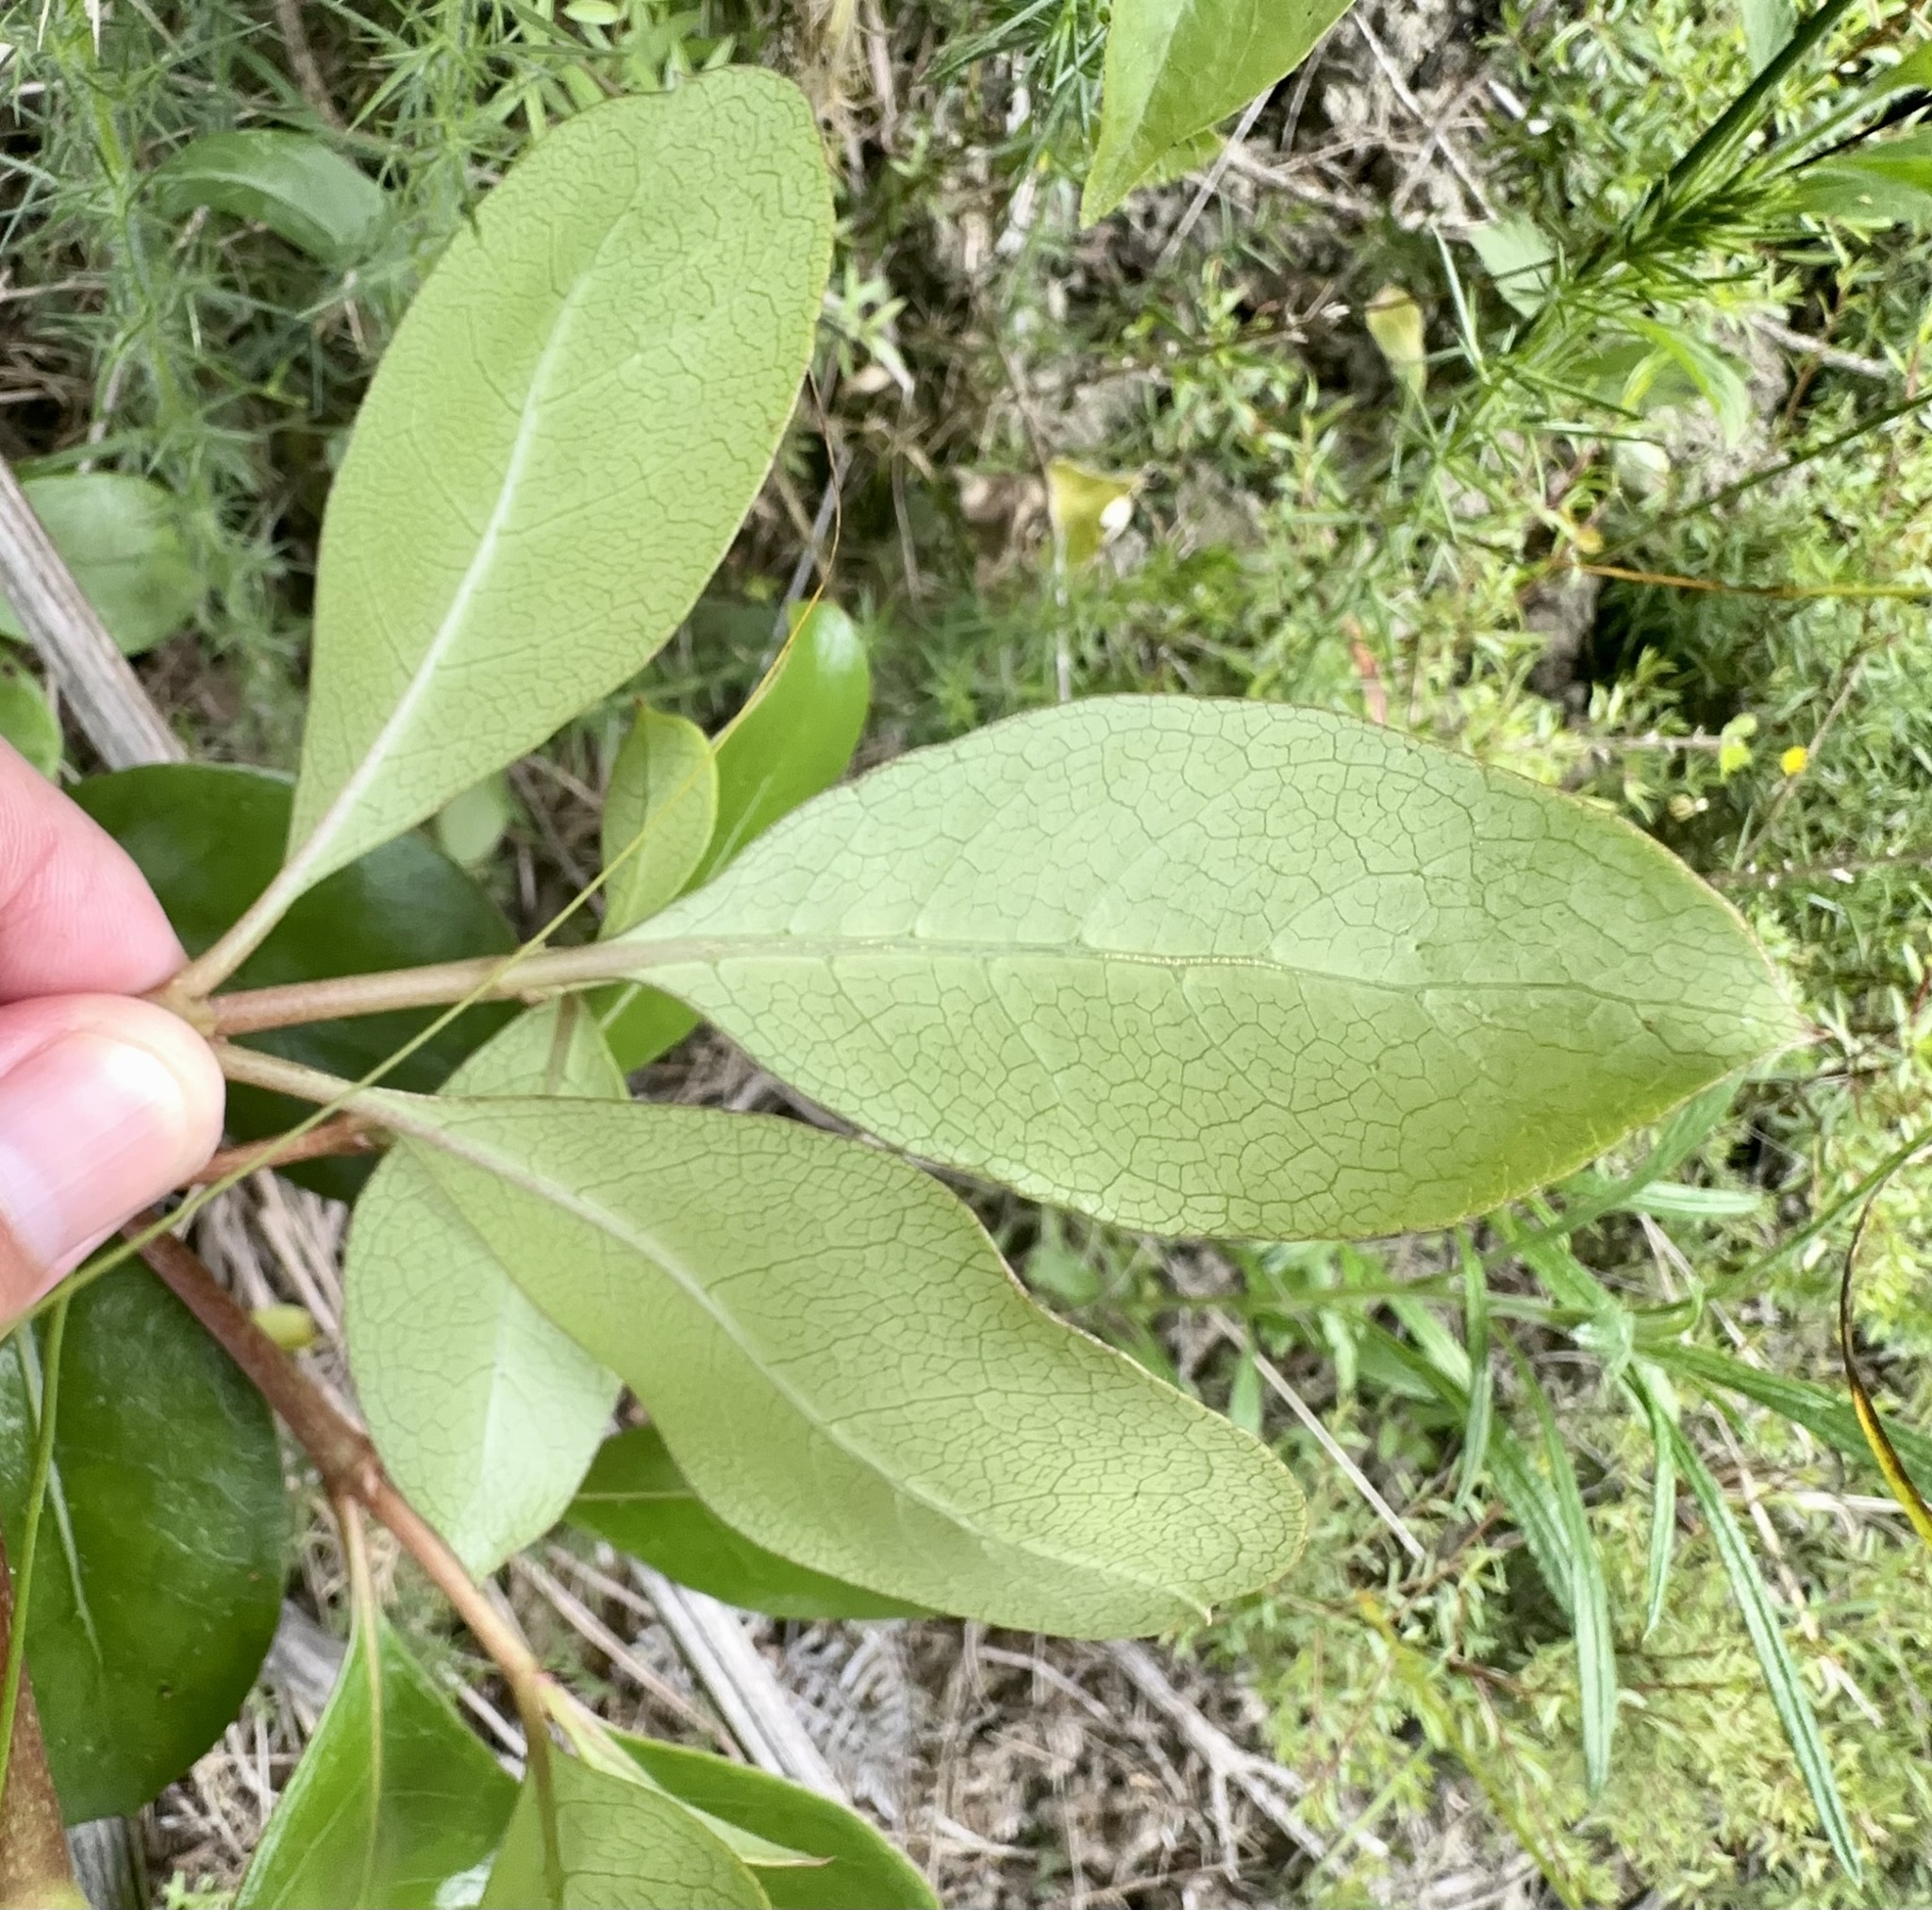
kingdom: Plantae
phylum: Tracheophyta
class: Magnoliopsida
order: Gentianales
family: Rubiaceae
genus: Coprosma
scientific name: Coprosma lucida
